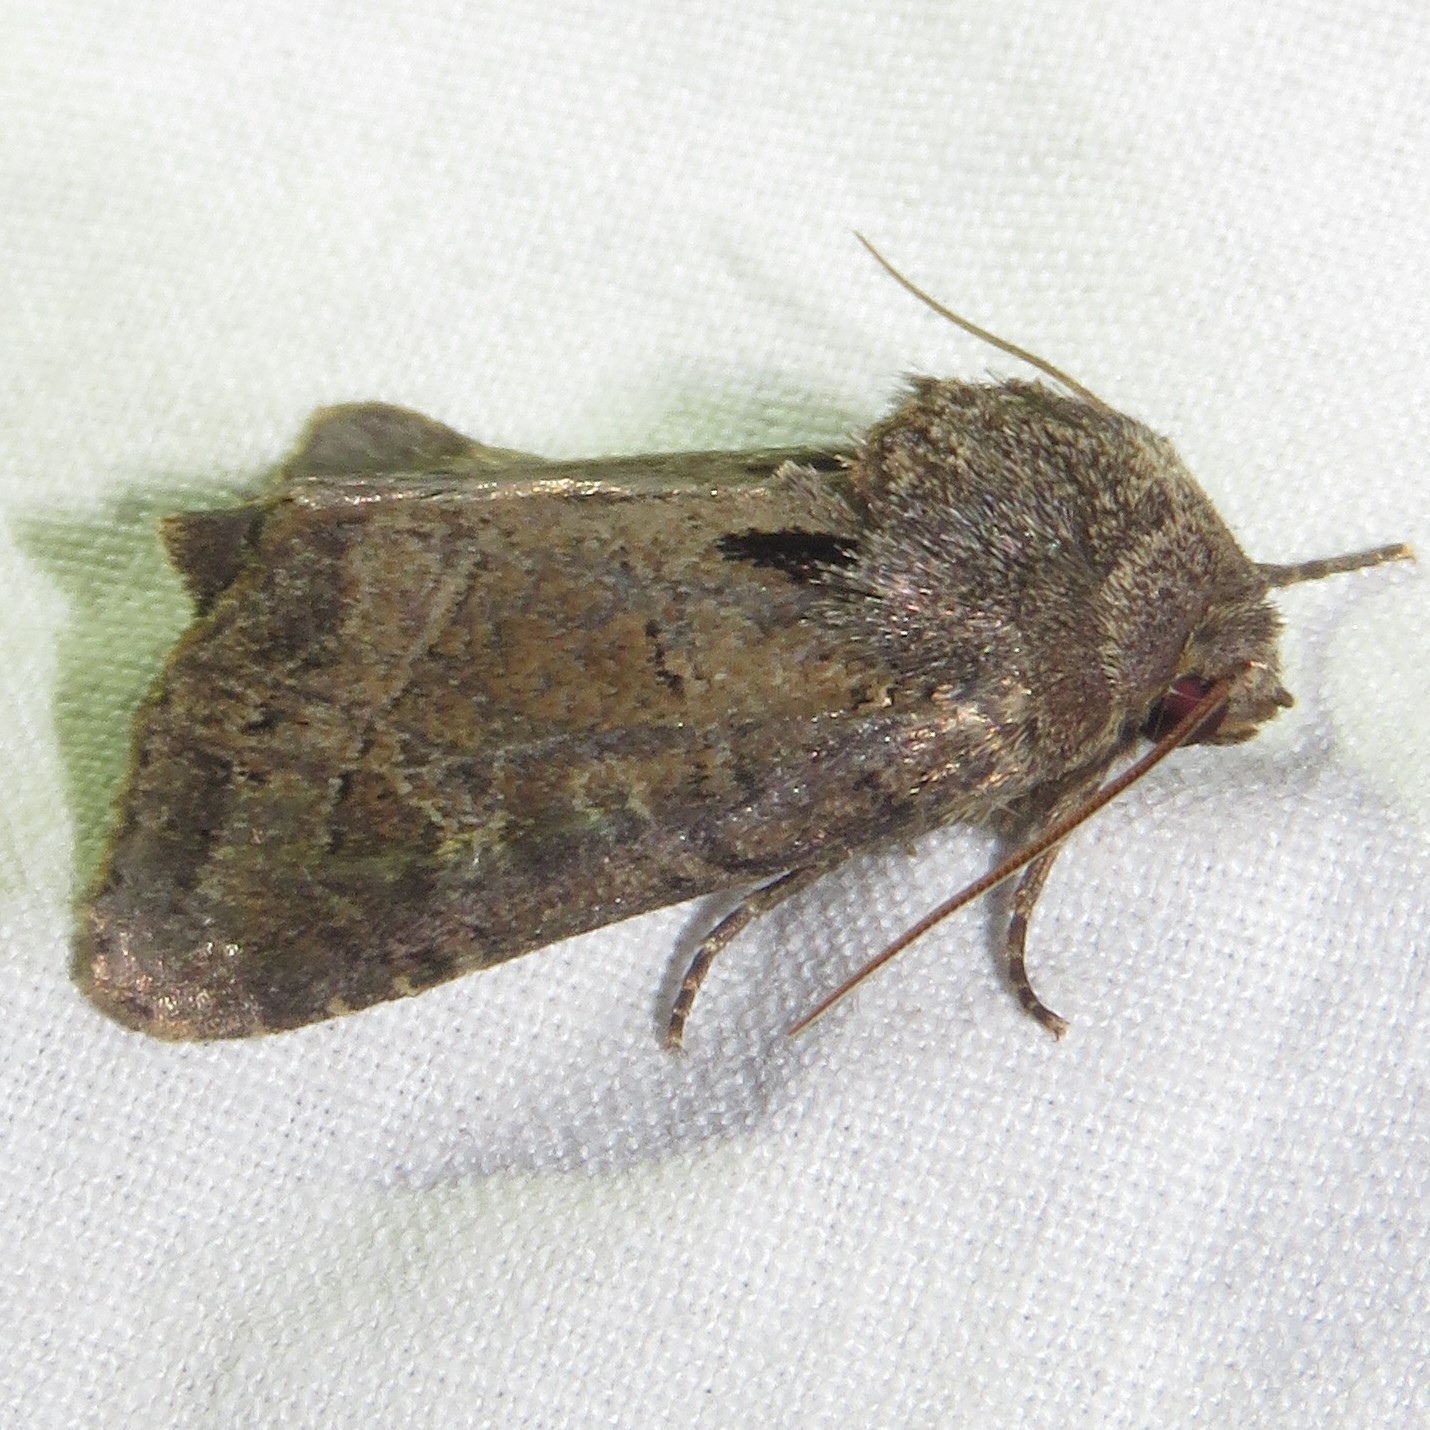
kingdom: Animalia
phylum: Arthropoda
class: Insecta
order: Lepidoptera
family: Noctuidae
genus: Oligia
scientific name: Oligia obtusa
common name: Obtuse sedge borer
